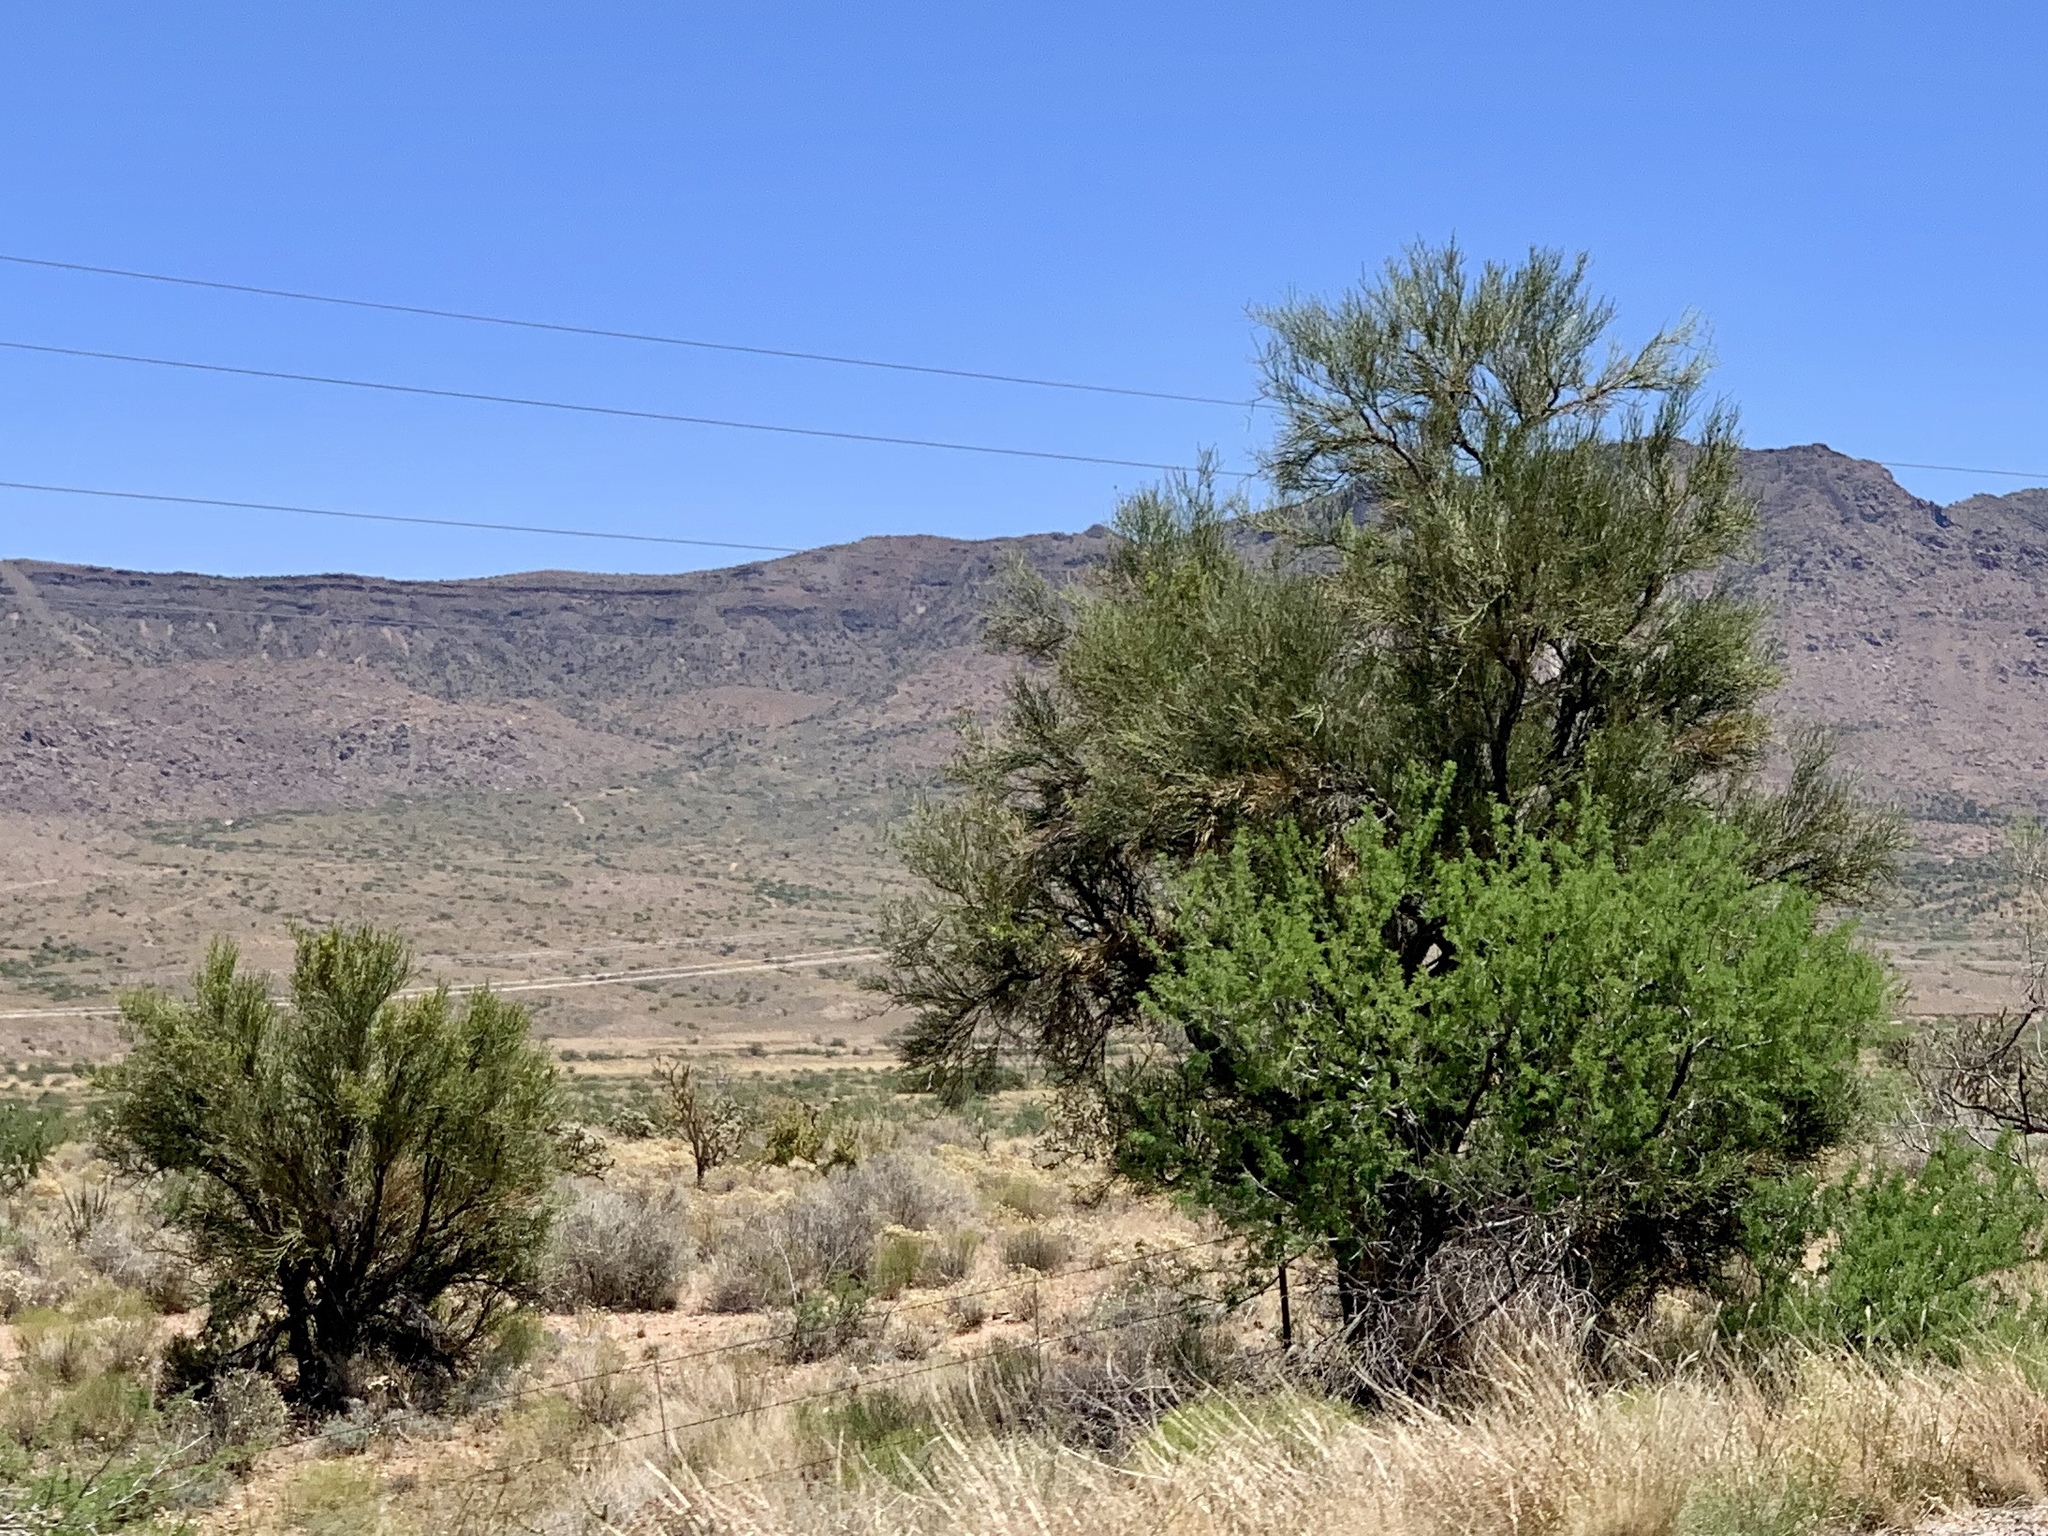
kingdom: Plantae
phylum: Tracheophyta
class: Magnoliopsida
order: Celastrales
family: Celastraceae
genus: Canotia
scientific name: Canotia holacantha
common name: Crucifixion thorns
